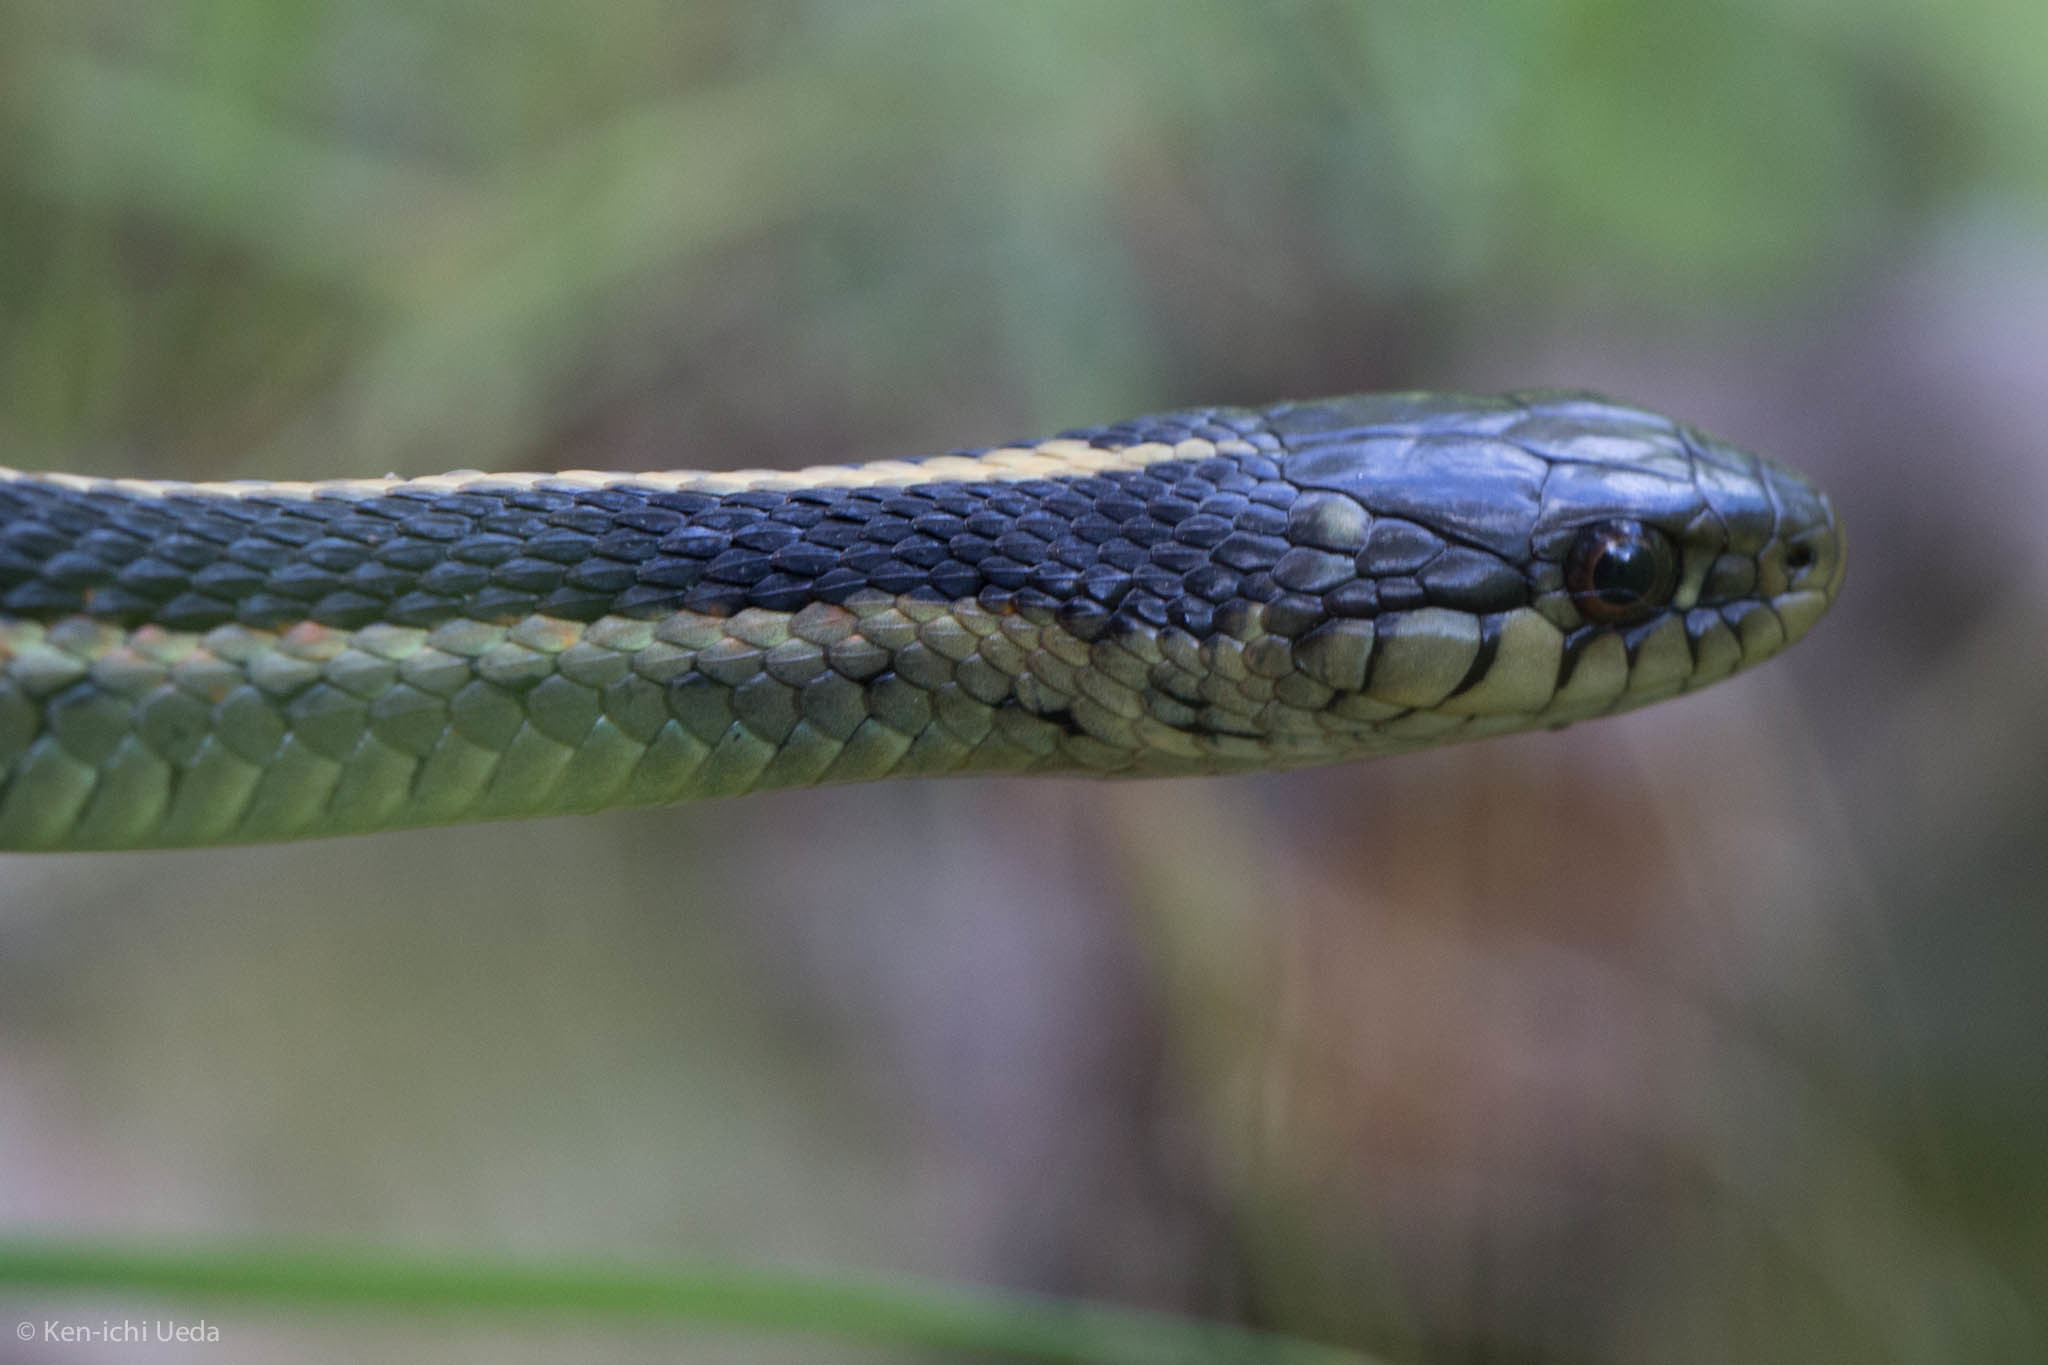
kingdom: Animalia
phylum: Chordata
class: Squamata
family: Colubridae
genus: Thamnophis
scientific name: Thamnophis elegans
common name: Western terrestrial garter snake
